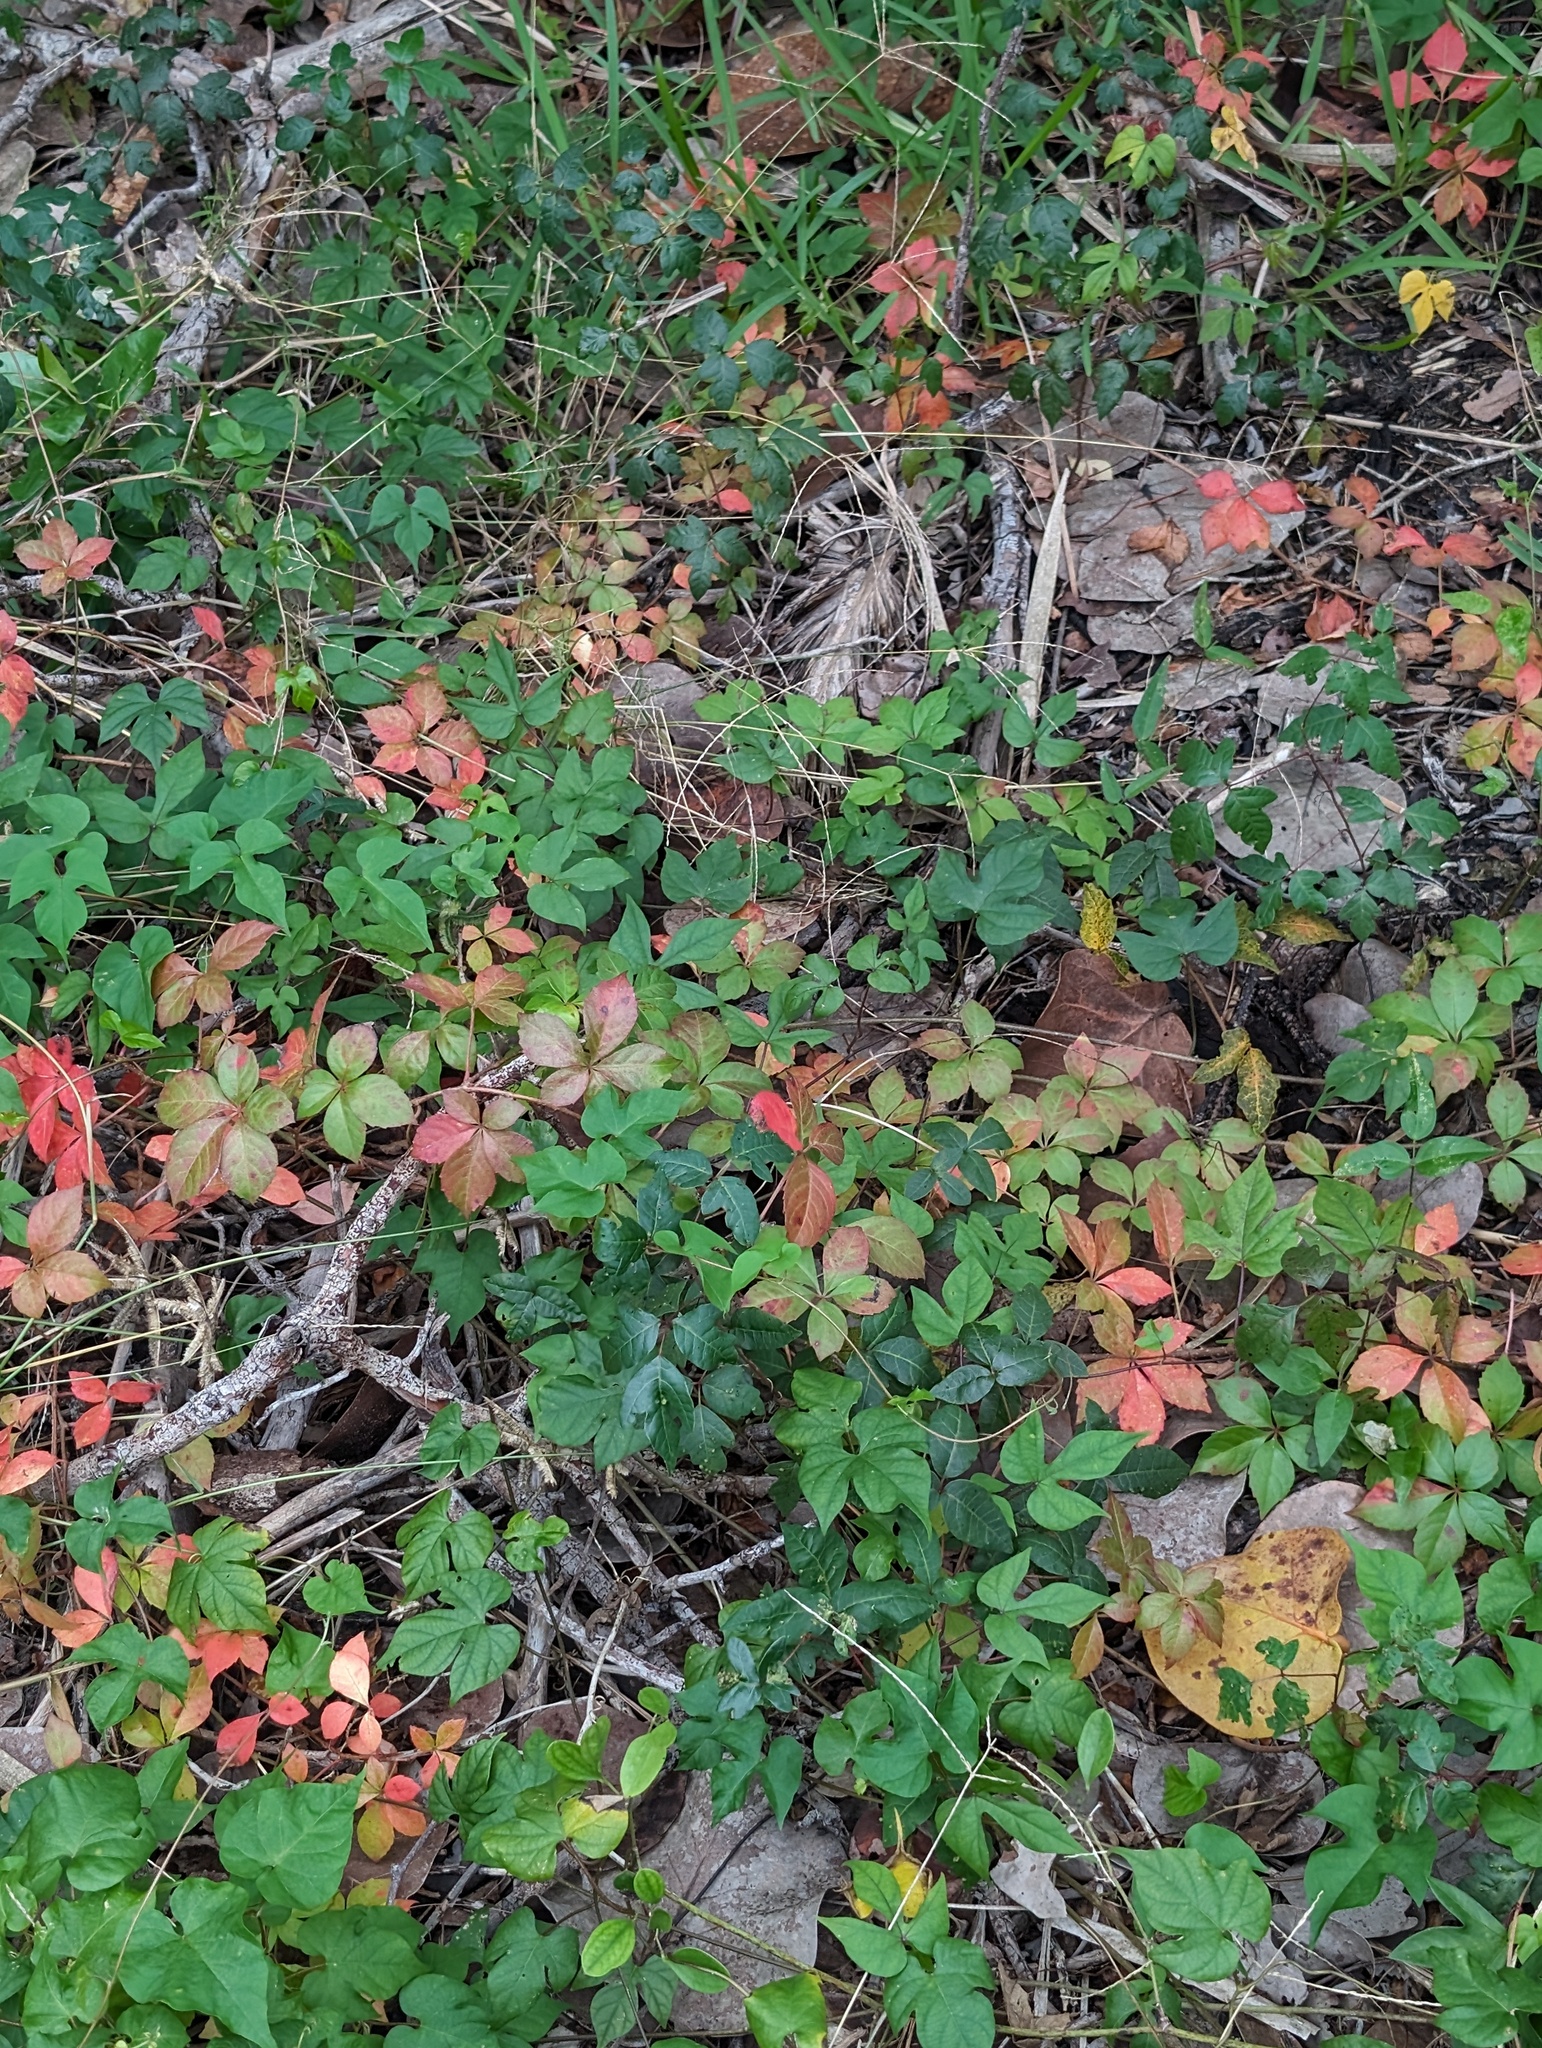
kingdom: Plantae
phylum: Tracheophyta
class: Magnoliopsida
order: Vitales
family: Vitaceae
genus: Parthenocissus
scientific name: Parthenocissus quinquefolia
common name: Virginia-creeper
